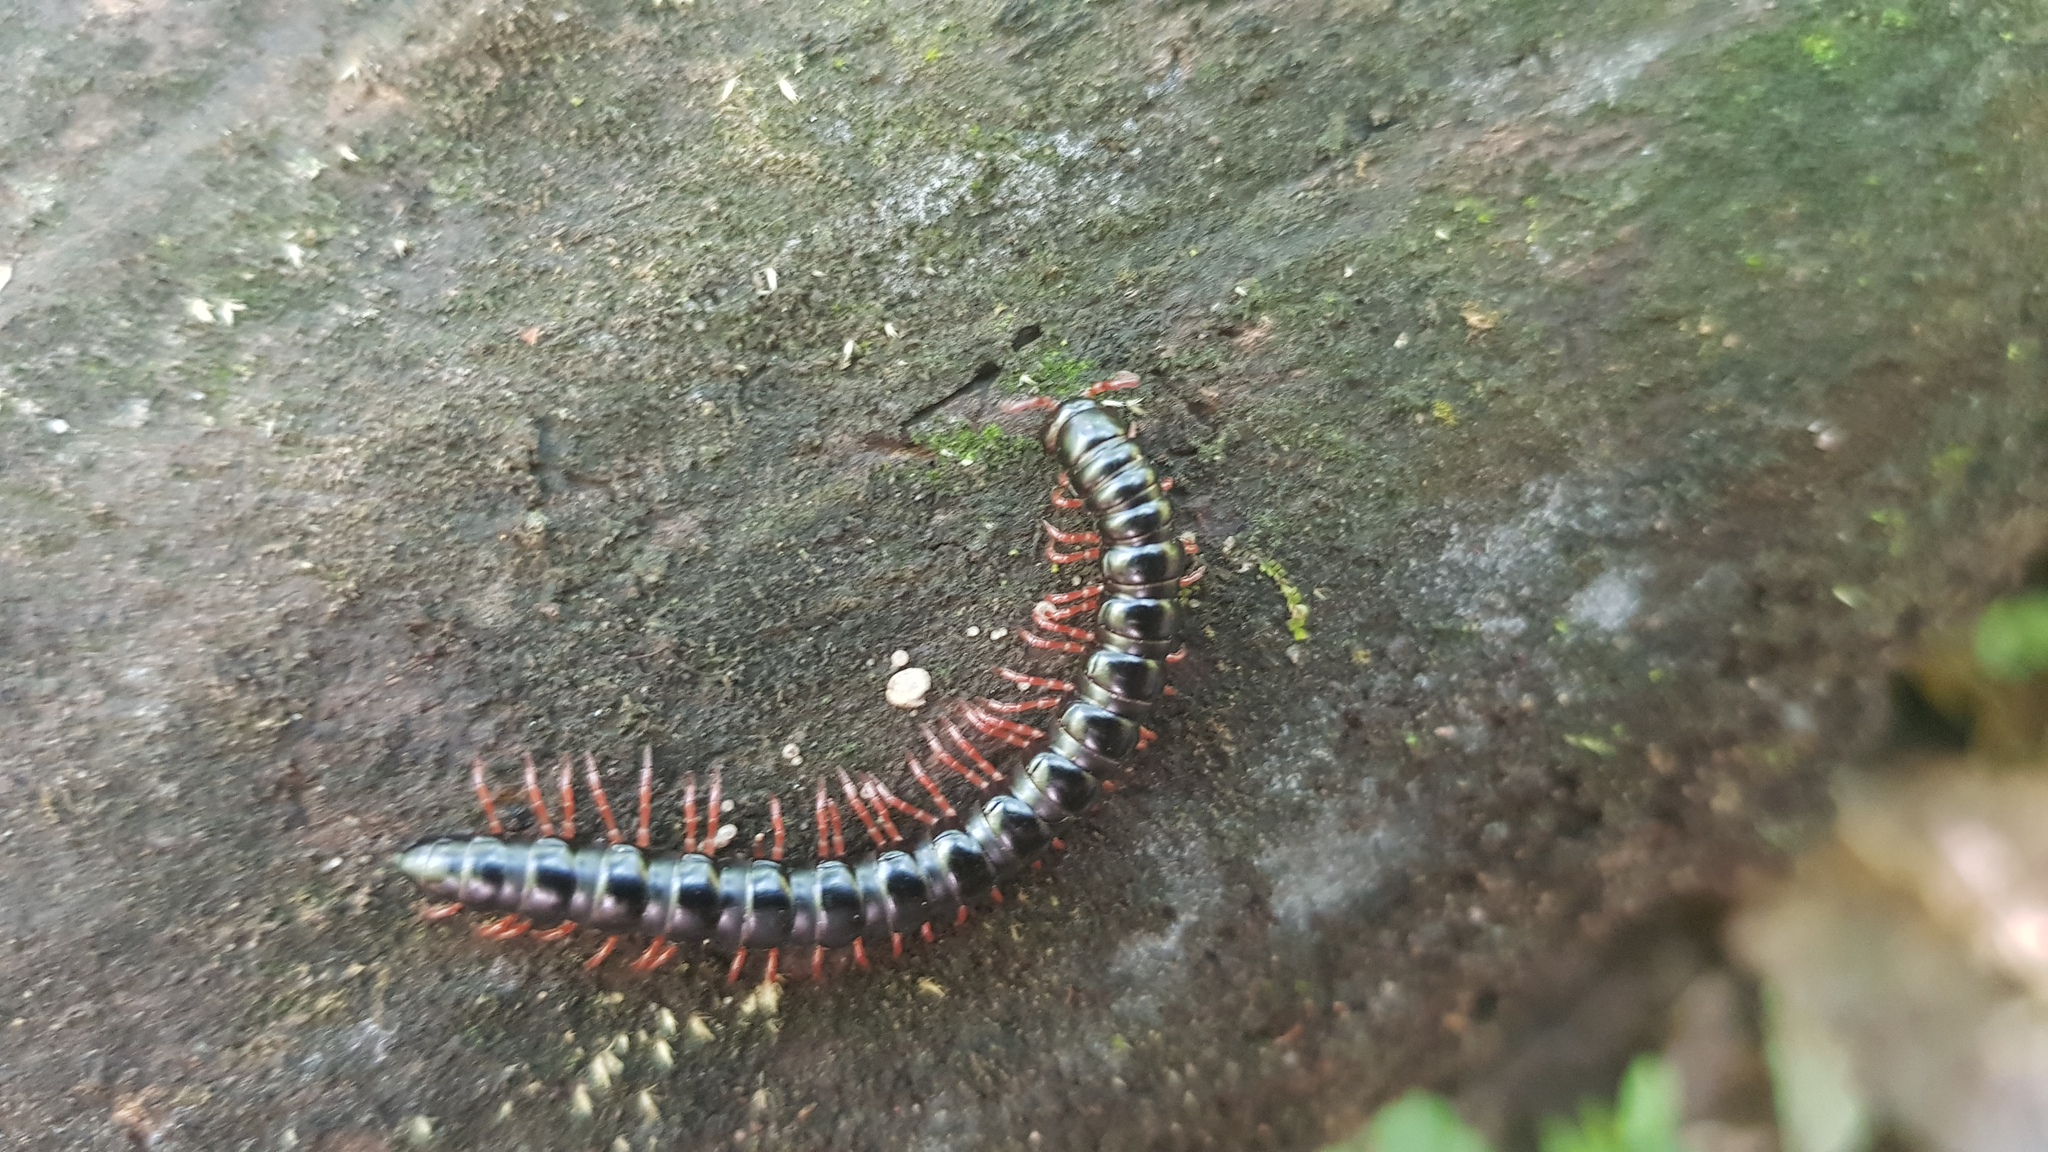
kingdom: Animalia
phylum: Arthropoda
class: Diplopoda
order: Polydesmida
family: Paradoxosomatidae
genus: Heterocladosoma
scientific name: Heterocladosoma
